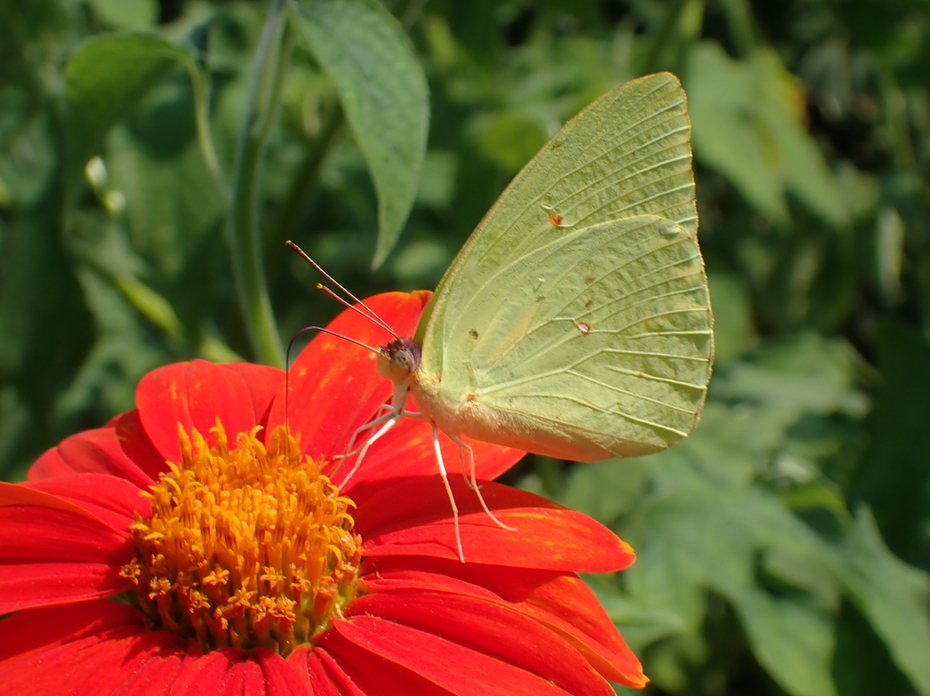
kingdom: Animalia
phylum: Arthropoda
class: Insecta
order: Lepidoptera
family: Pieridae
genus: Phoebis
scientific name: Phoebis sennae
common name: Cloudless sulphur
